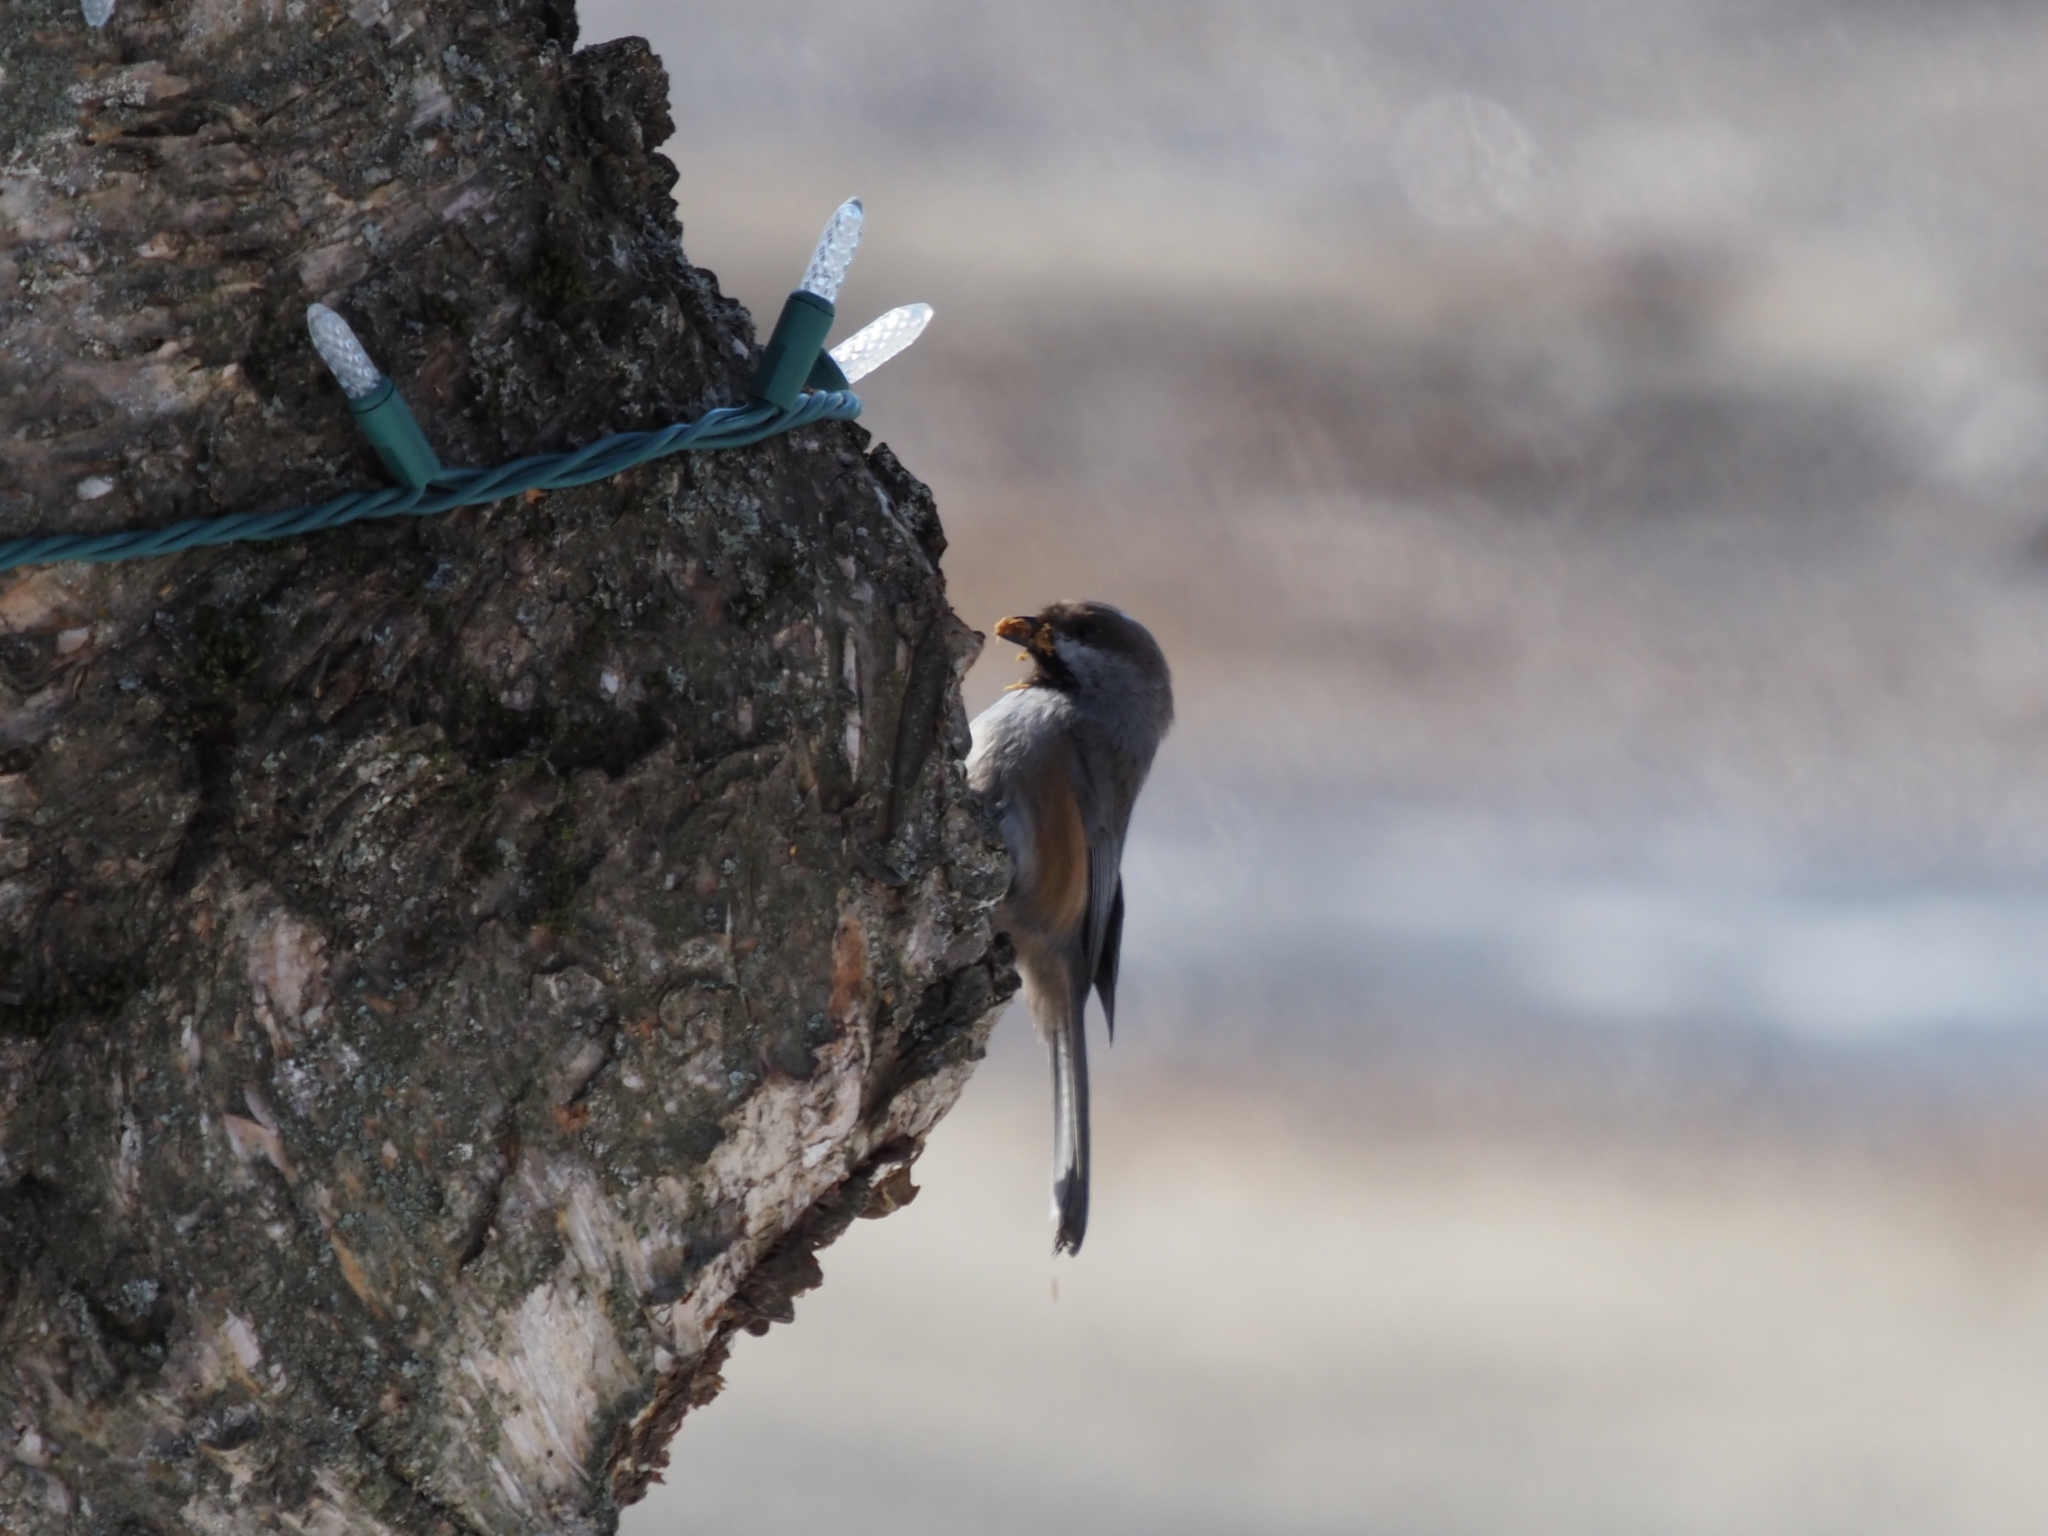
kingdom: Animalia
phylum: Chordata
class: Aves
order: Passeriformes
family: Paridae
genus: Poecile
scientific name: Poecile hudsonicus
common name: Boreal chickadee
